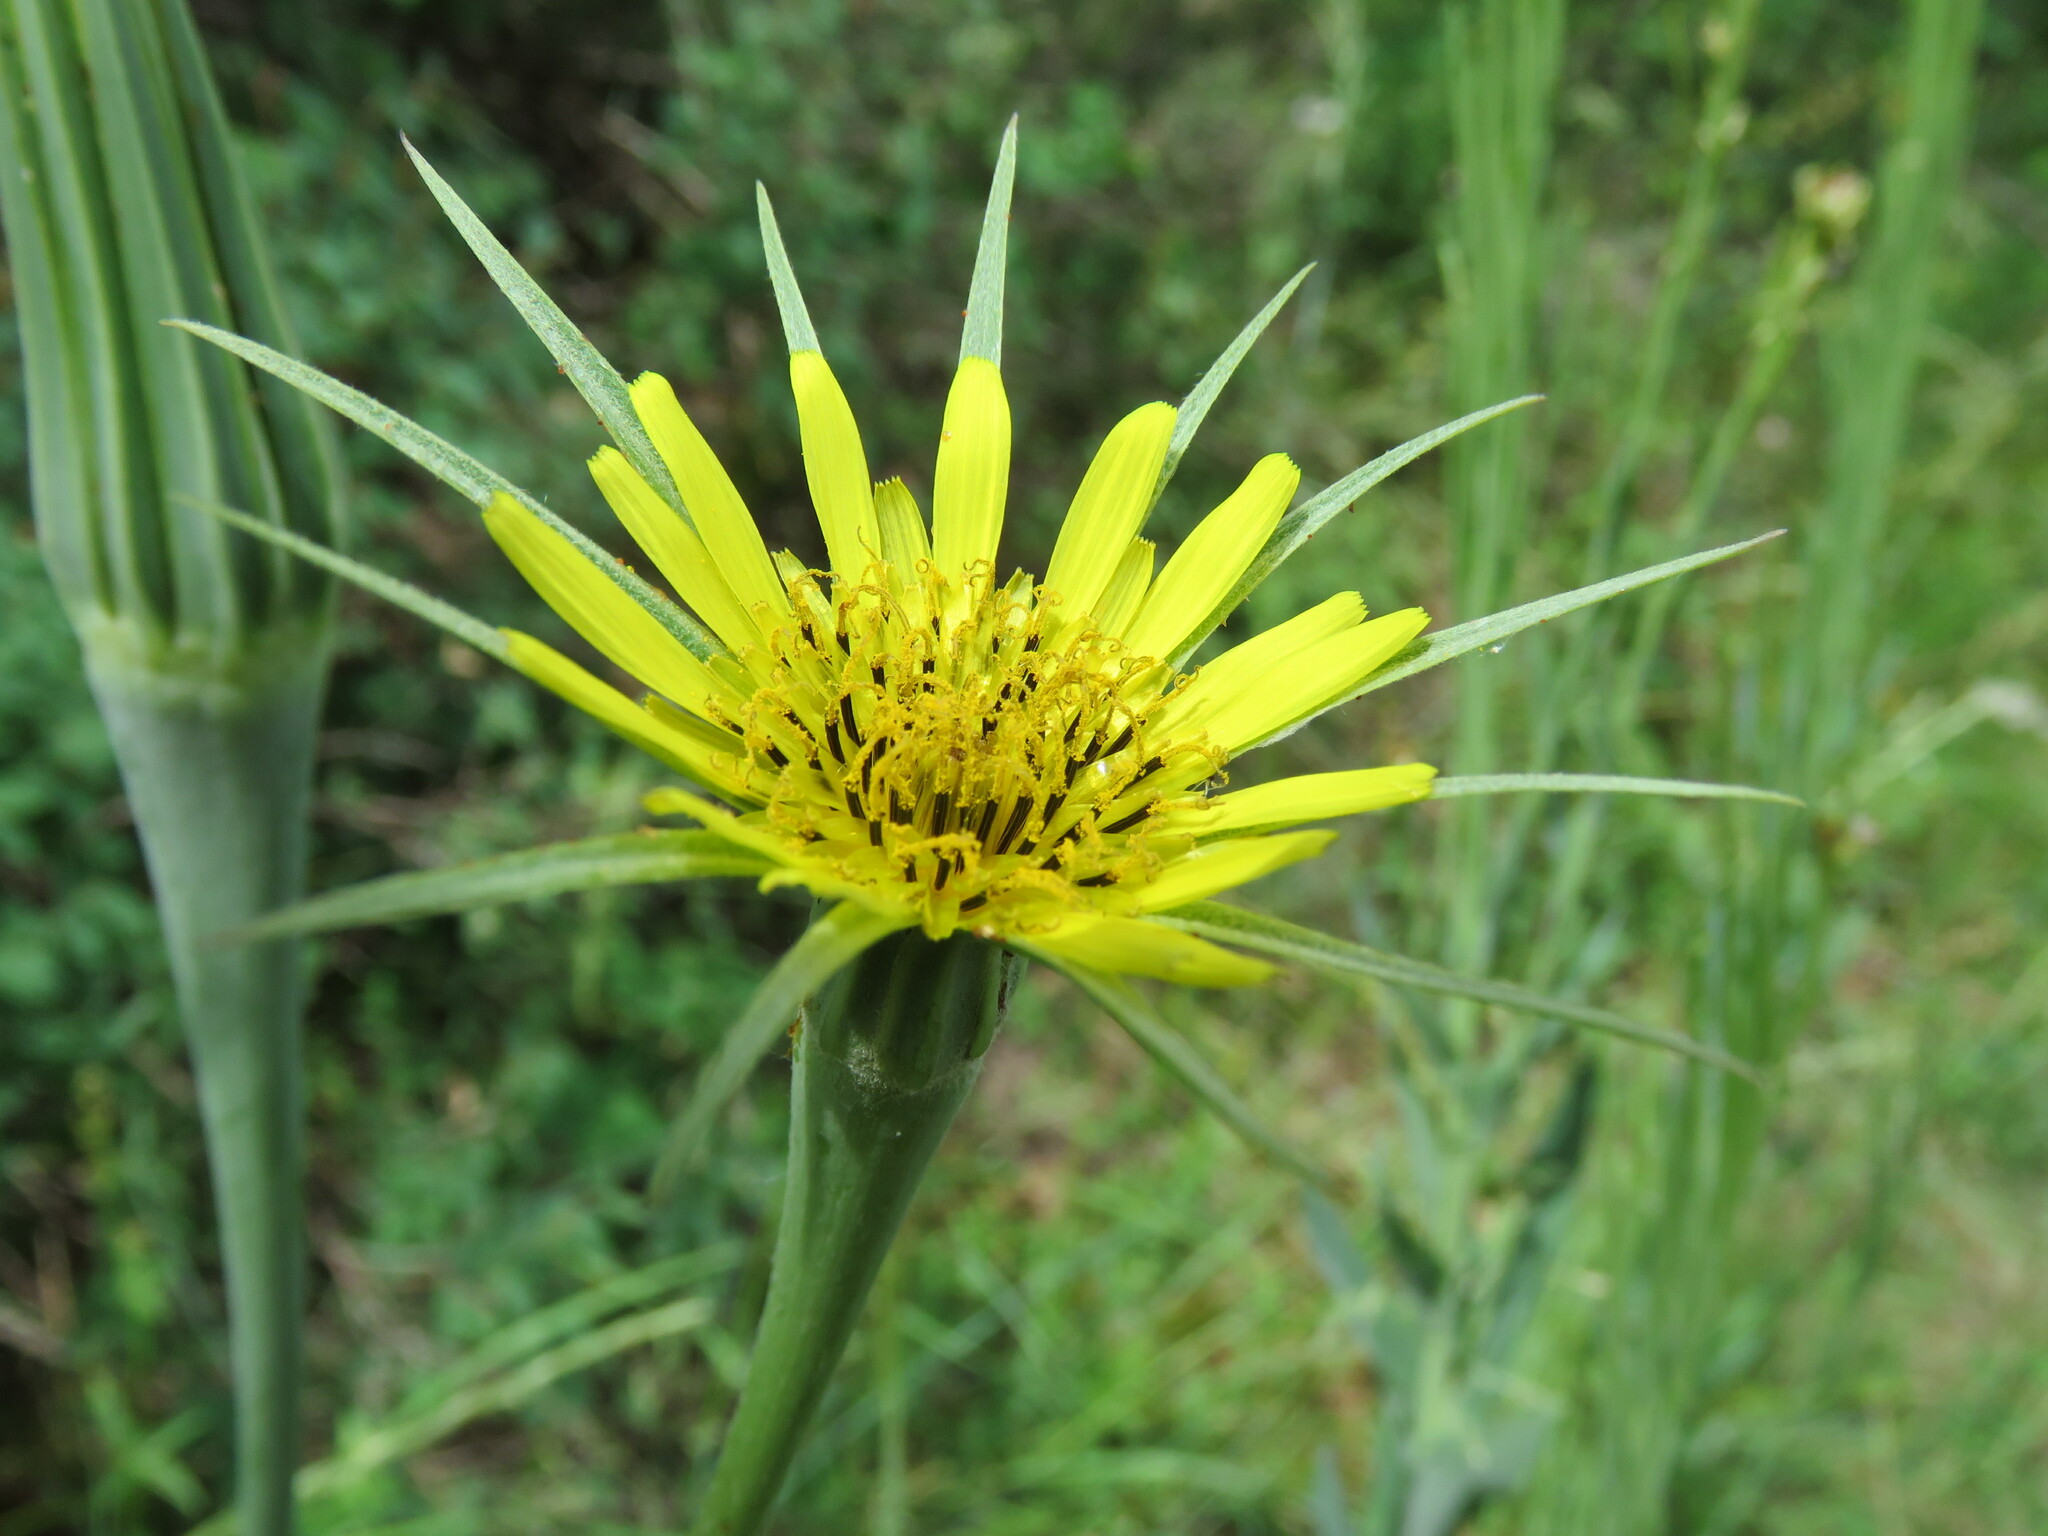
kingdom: Plantae
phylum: Tracheophyta
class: Magnoliopsida
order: Asterales
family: Asteraceae
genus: Tragopogon
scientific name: Tragopogon dubius
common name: Yellow salsify
